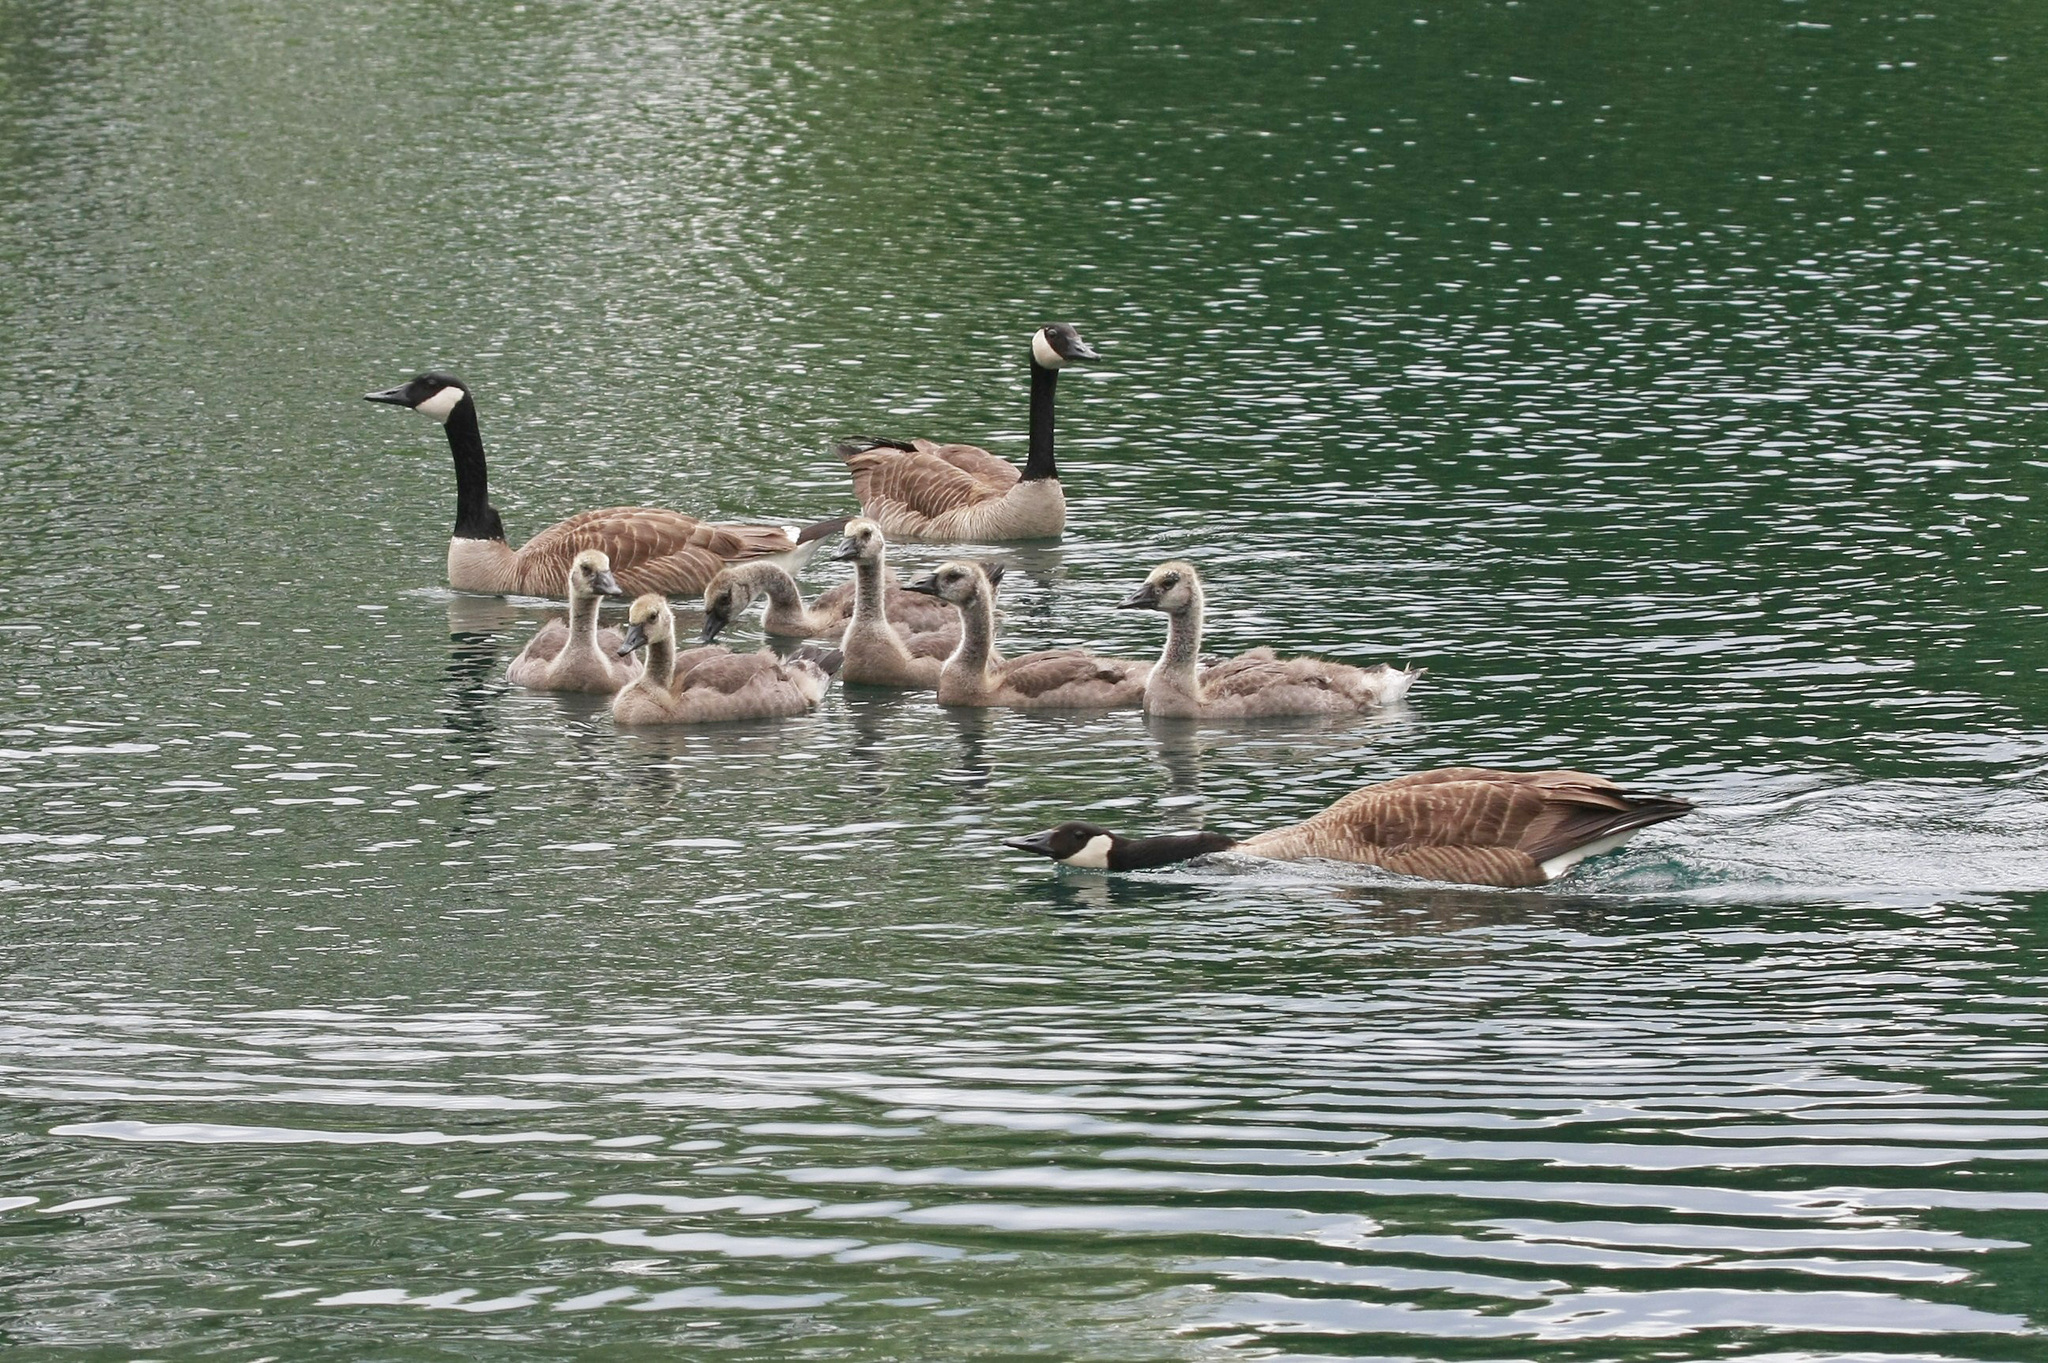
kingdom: Animalia
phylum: Chordata
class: Aves
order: Anseriformes
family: Anatidae
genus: Branta
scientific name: Branta canadensis
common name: Canada goose
